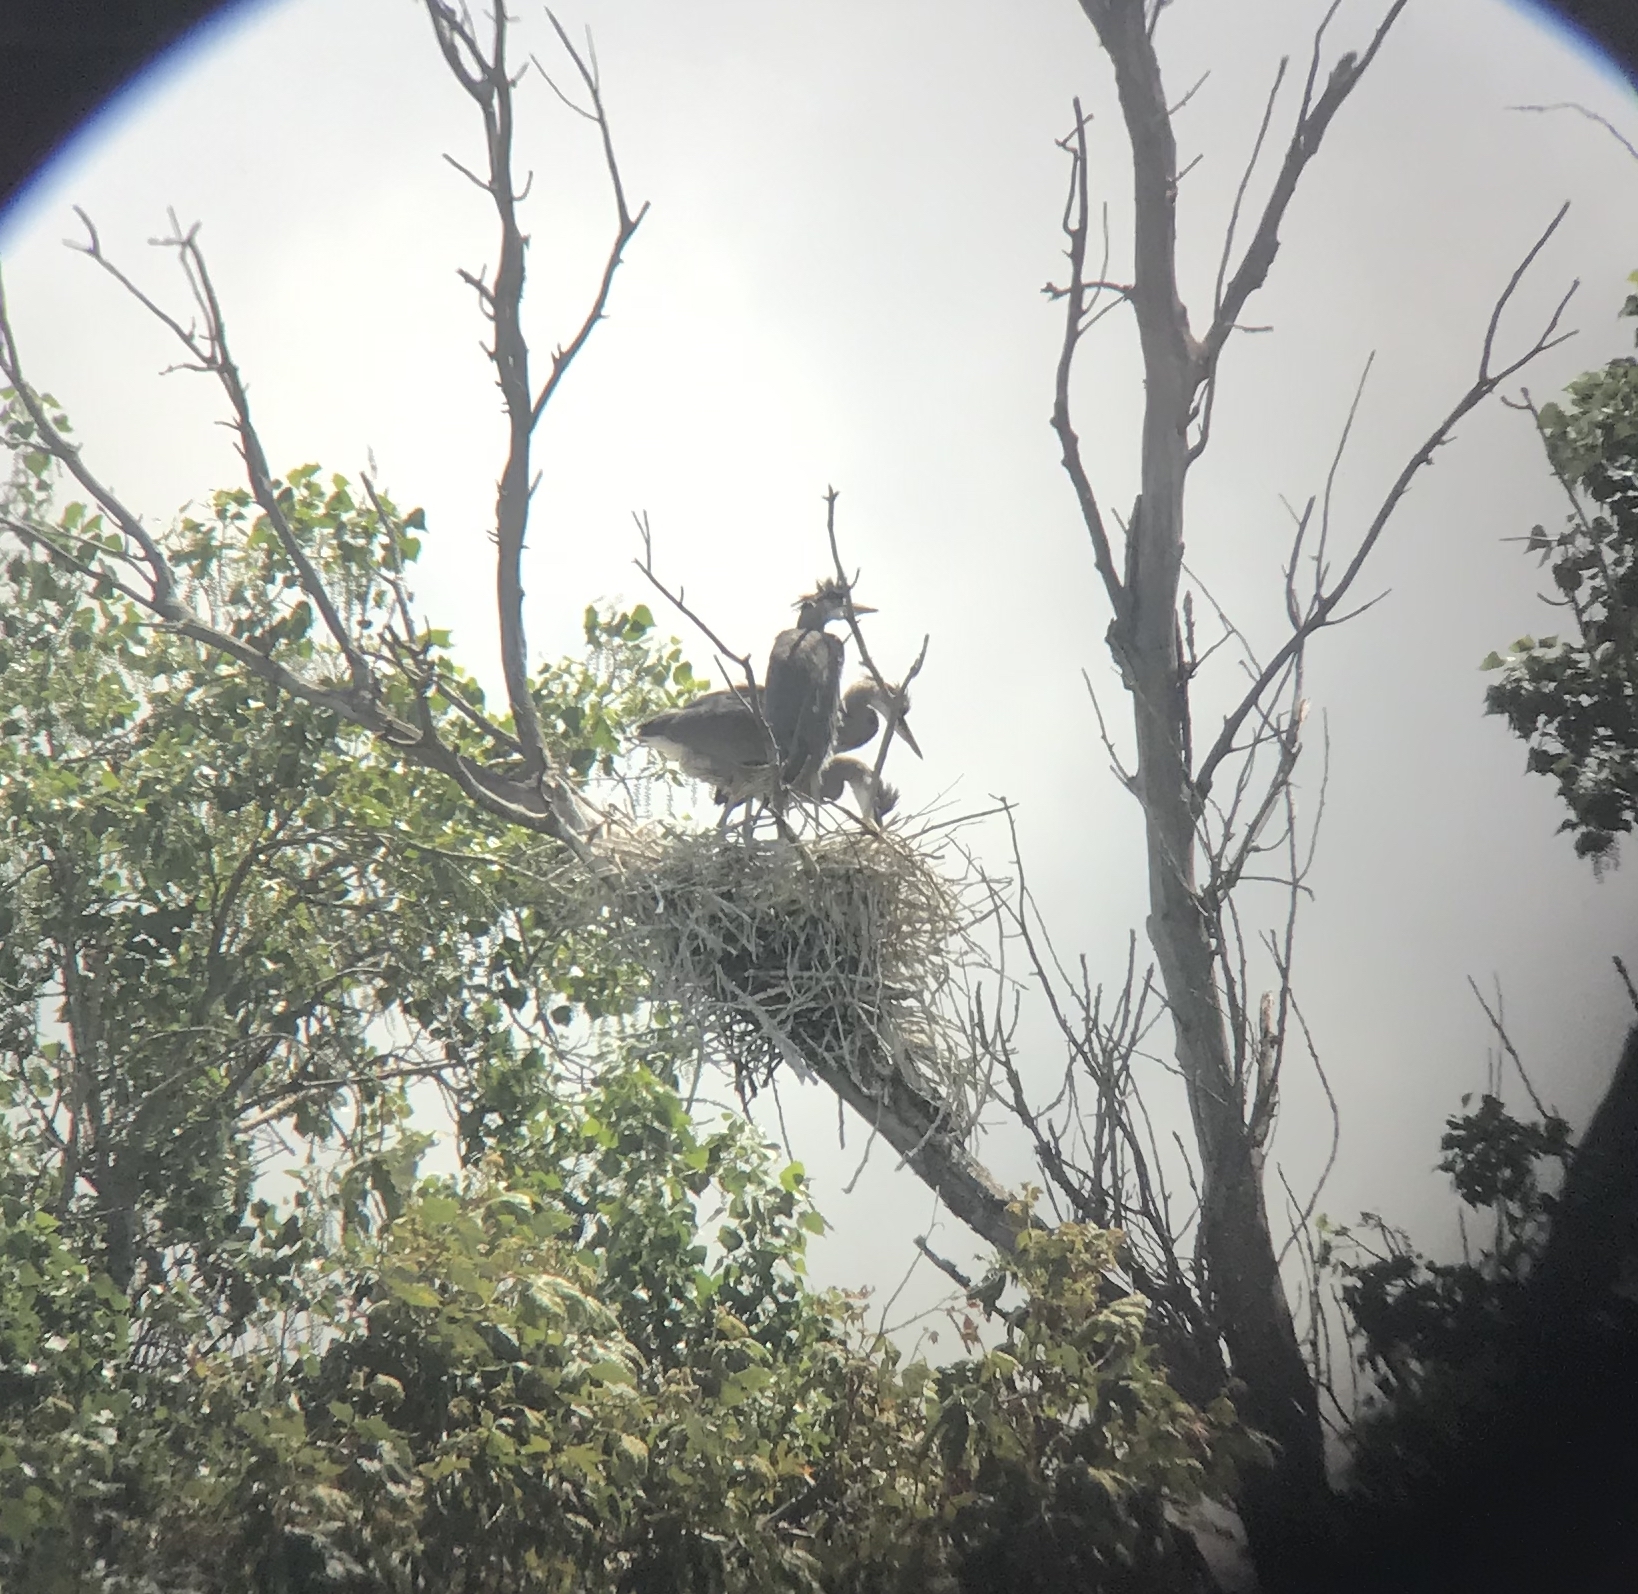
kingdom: Animalia
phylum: Chordata
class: Aves
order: Pelecaniformes
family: Ardeidae
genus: Ardea
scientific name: Ardea herodias
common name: Great blue heron
